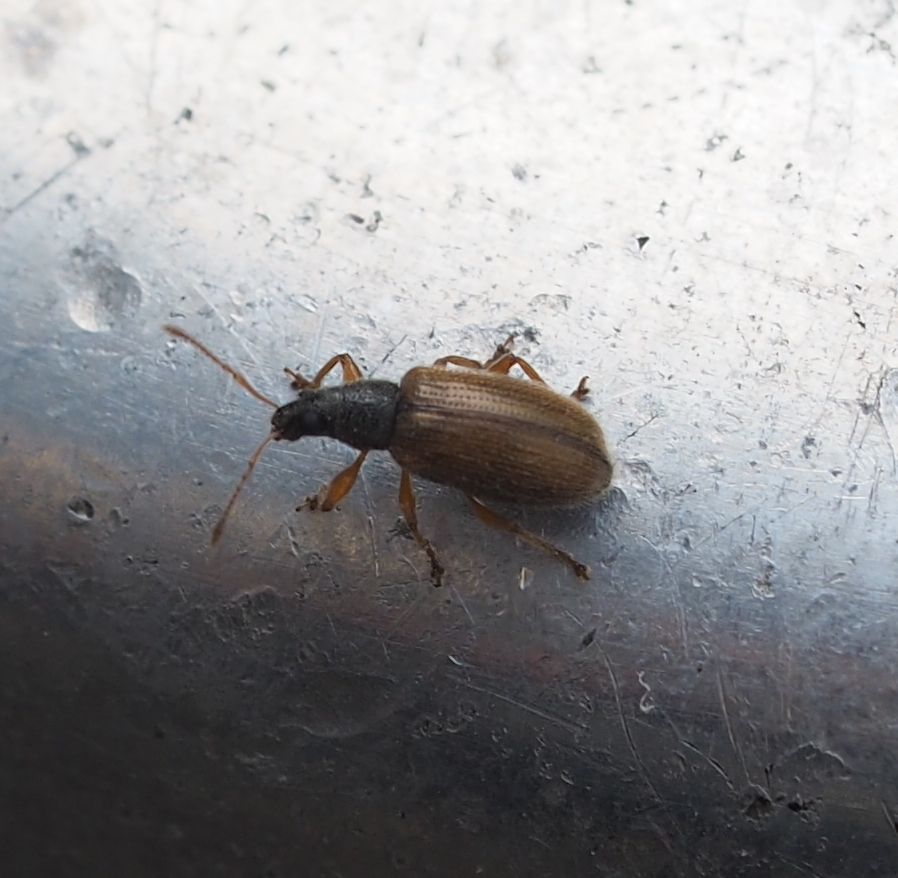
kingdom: Animalia
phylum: Arthropoda
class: Insecta
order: Coleoptera
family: Curculionidae
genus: Phyllobius
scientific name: Phyllobius oblongus
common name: Brown leaf weevil
